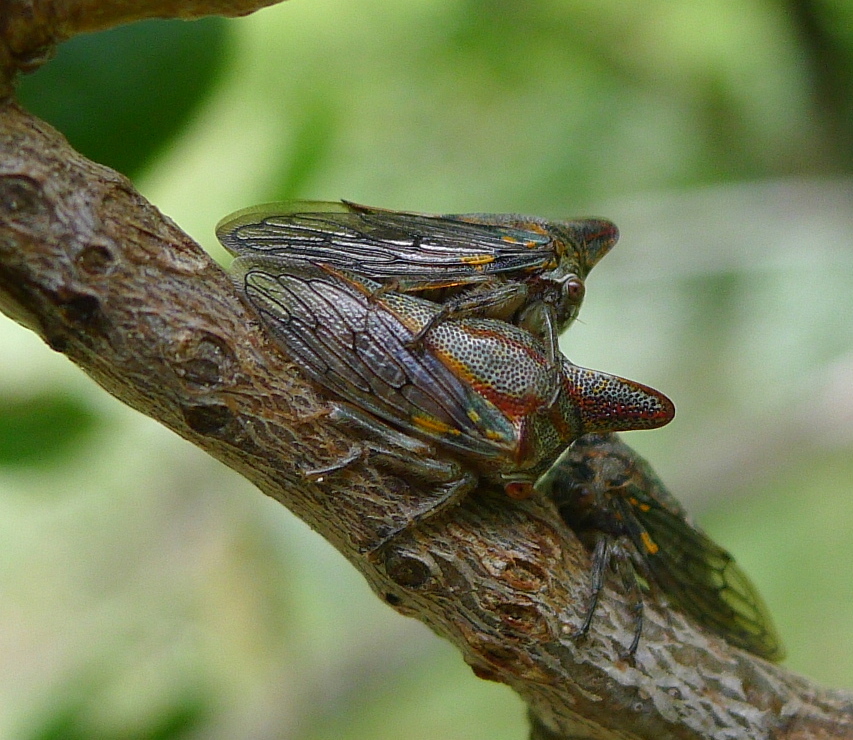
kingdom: Animalia
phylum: Arthropoda
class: Insecta
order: Hemiptera
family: Membracidae
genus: Platycotis
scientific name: Platycotis vittatus
